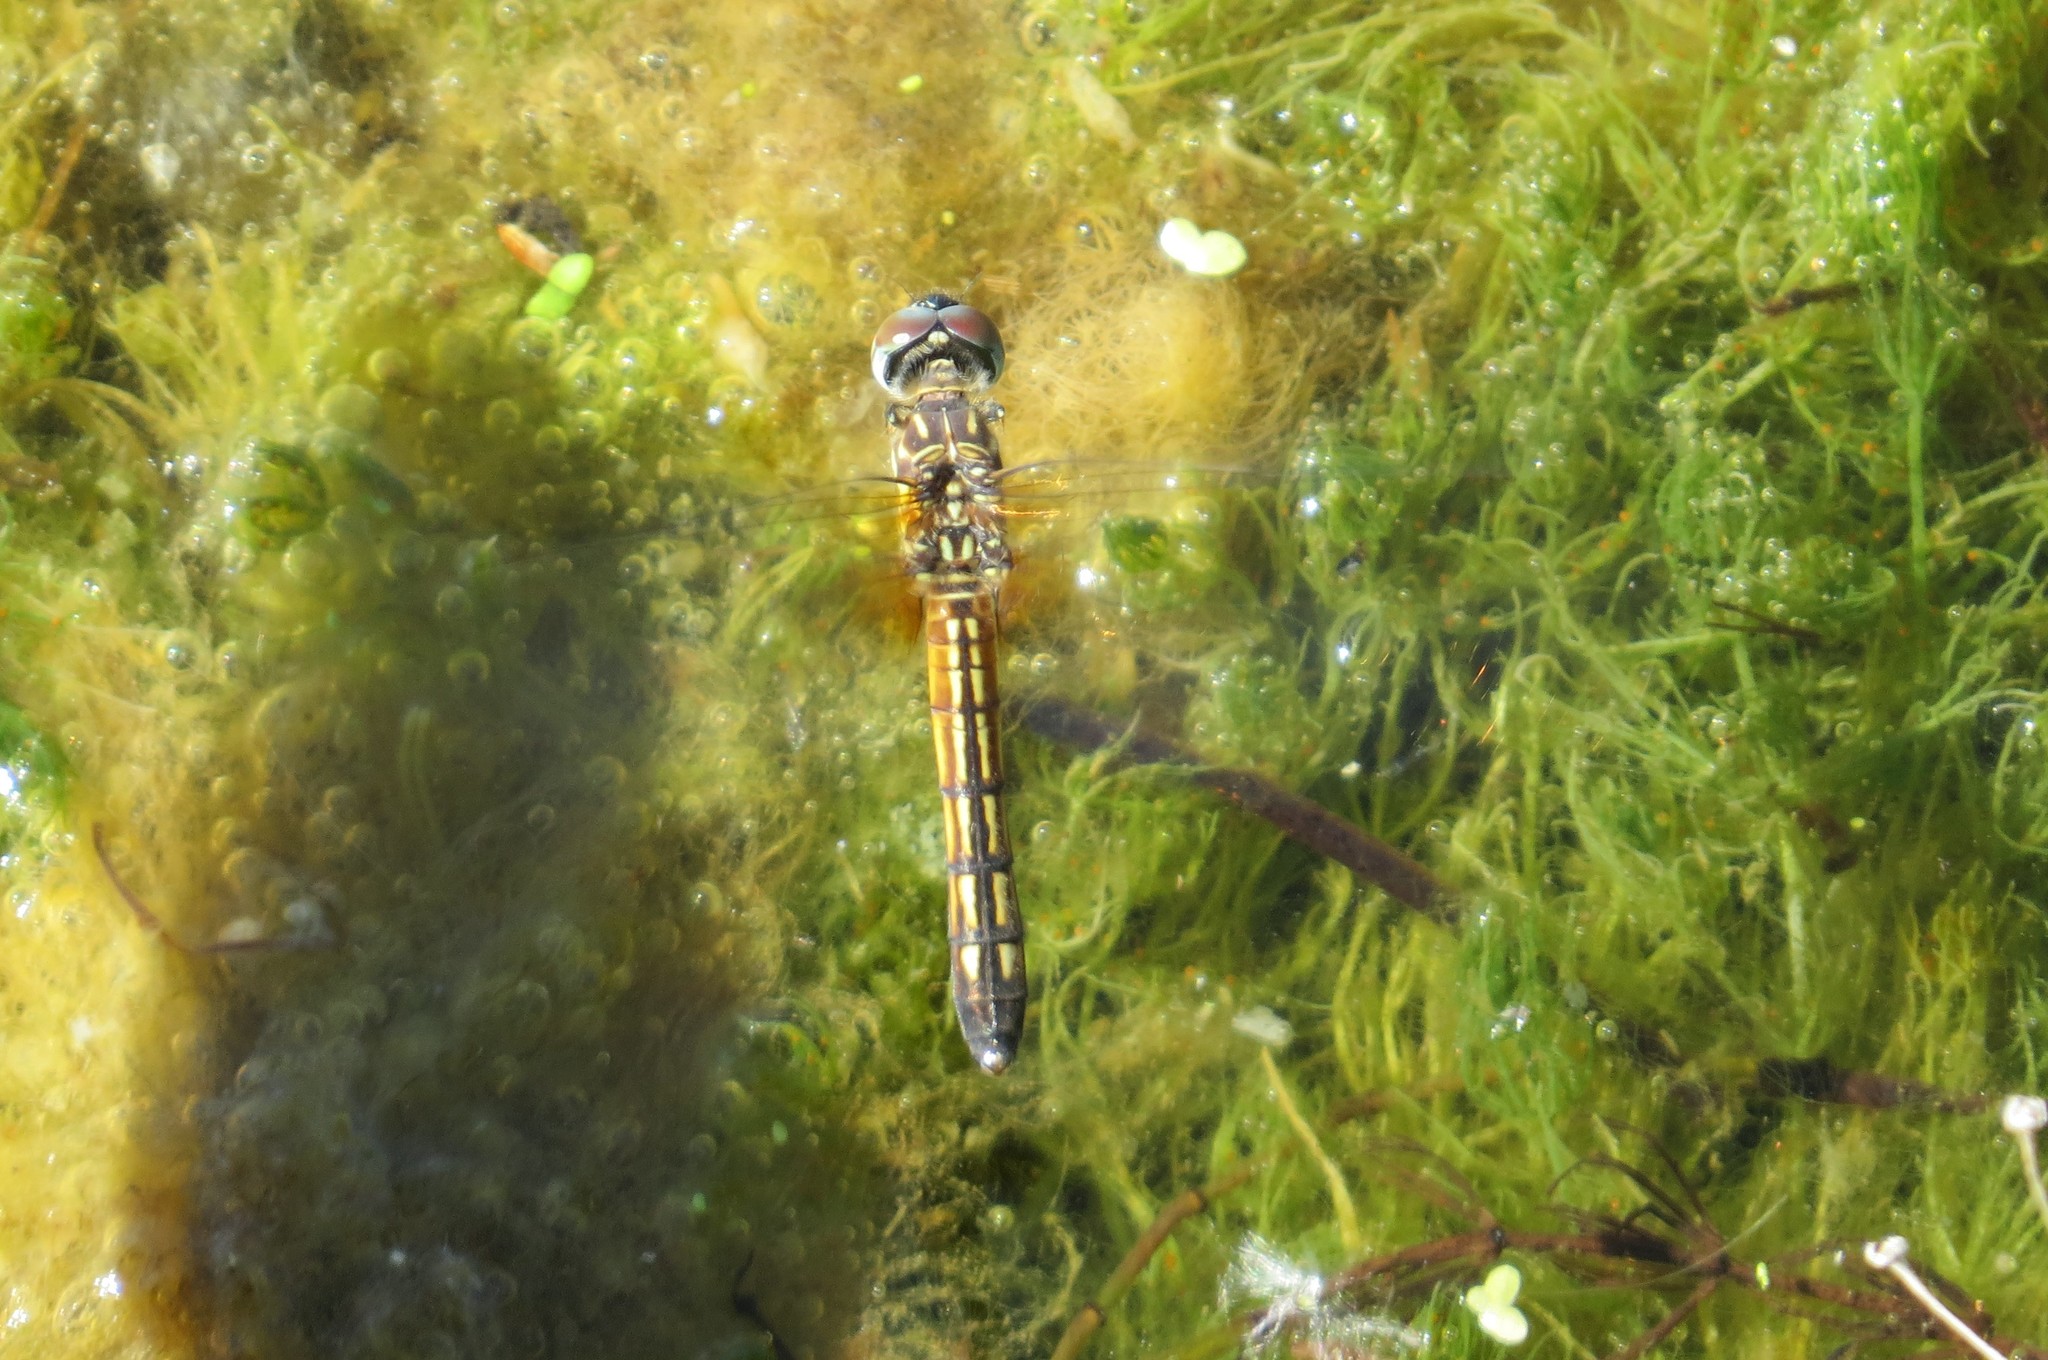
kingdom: Animalia
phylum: Arthropoda
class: Insecta
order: Odonata
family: Libellulidae
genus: Pachydiplax
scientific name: Pachydiplax longipennis
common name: Blue dasher
